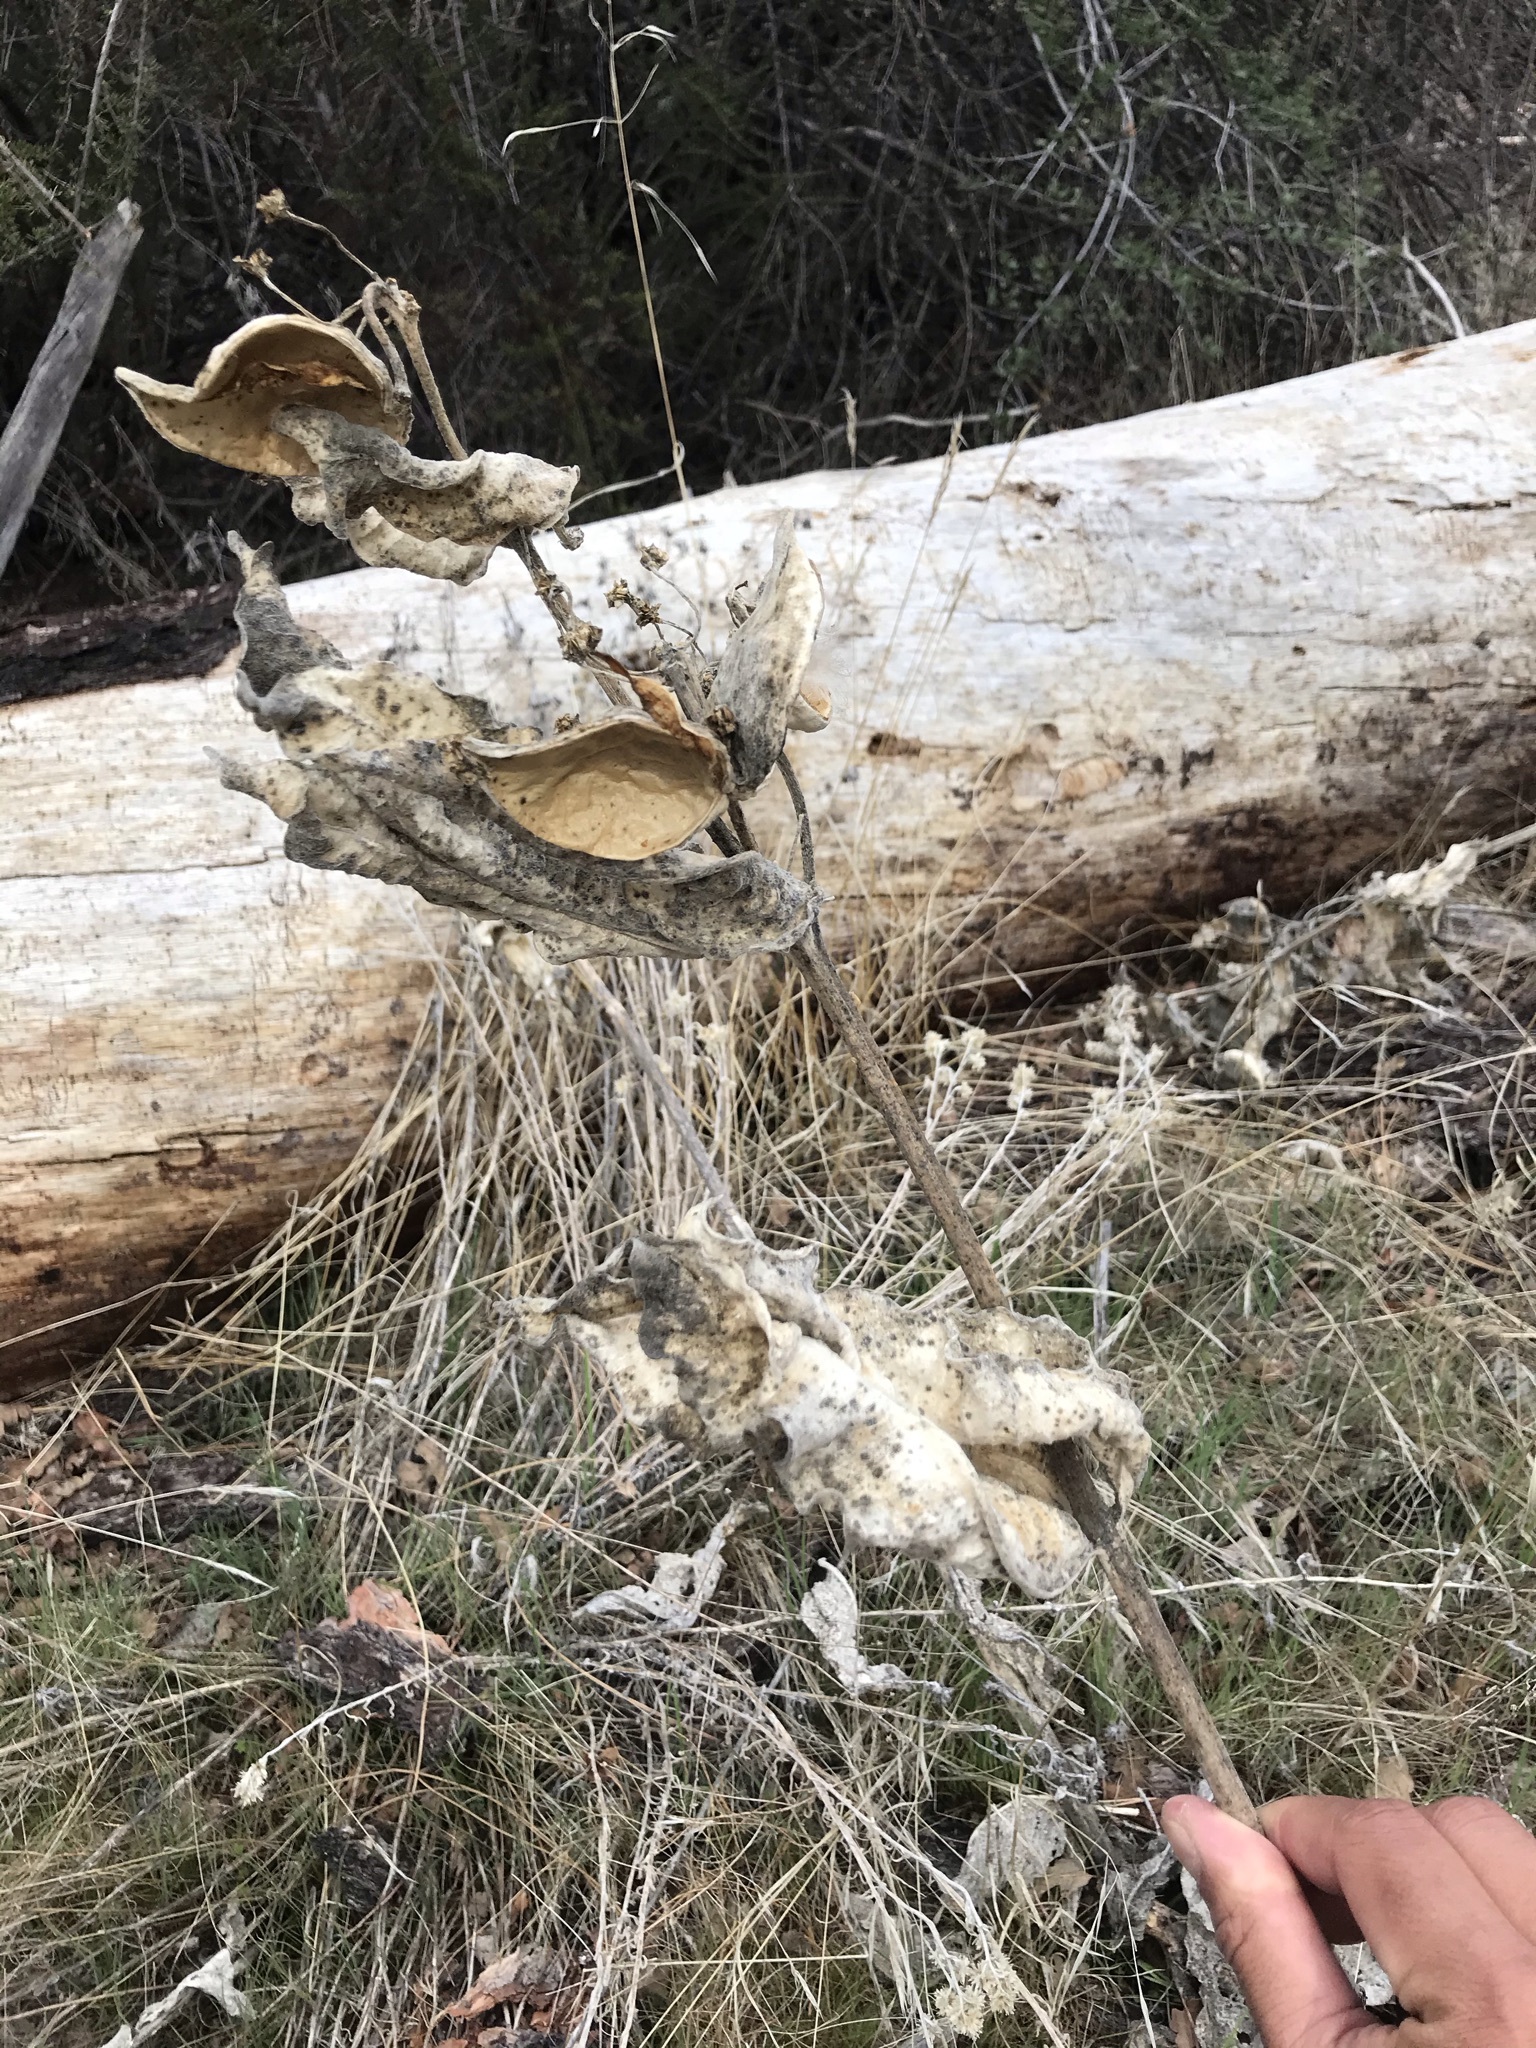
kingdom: Plantae
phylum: Tracheophyta
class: Magnoliopsida
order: Gentianales
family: Apocynaceae
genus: Asclepias
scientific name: Asclepias eriocarpa
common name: Indian milkweed
